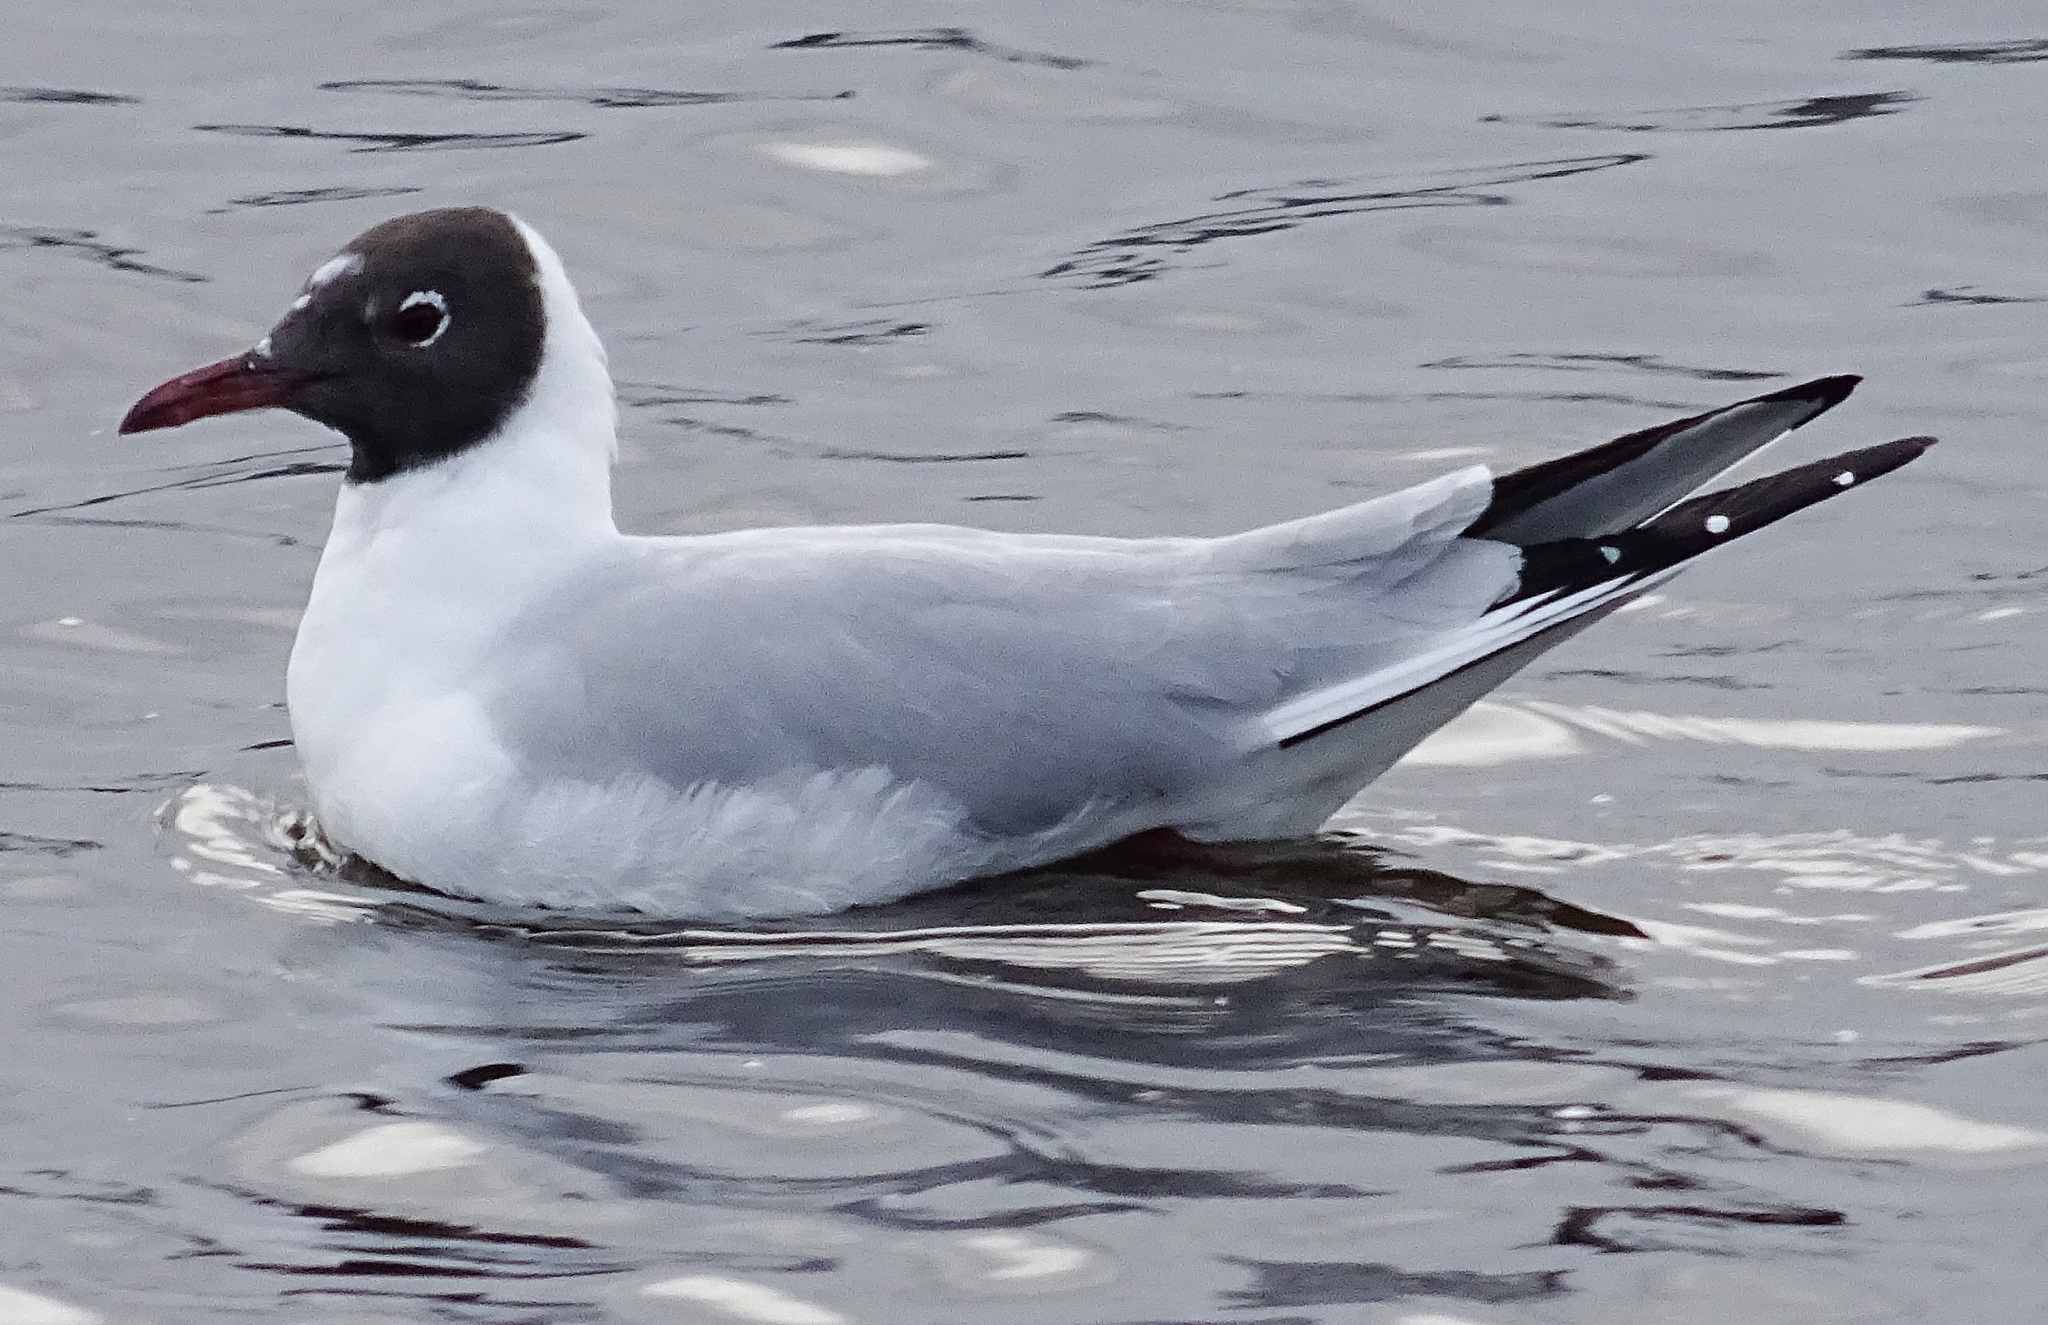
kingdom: Animalia
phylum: Chordata
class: Aves
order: Charadriiformes
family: Laridae
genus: Chroicocephalus
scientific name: Chroicocephalus ridibundus
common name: Black-headed gull
